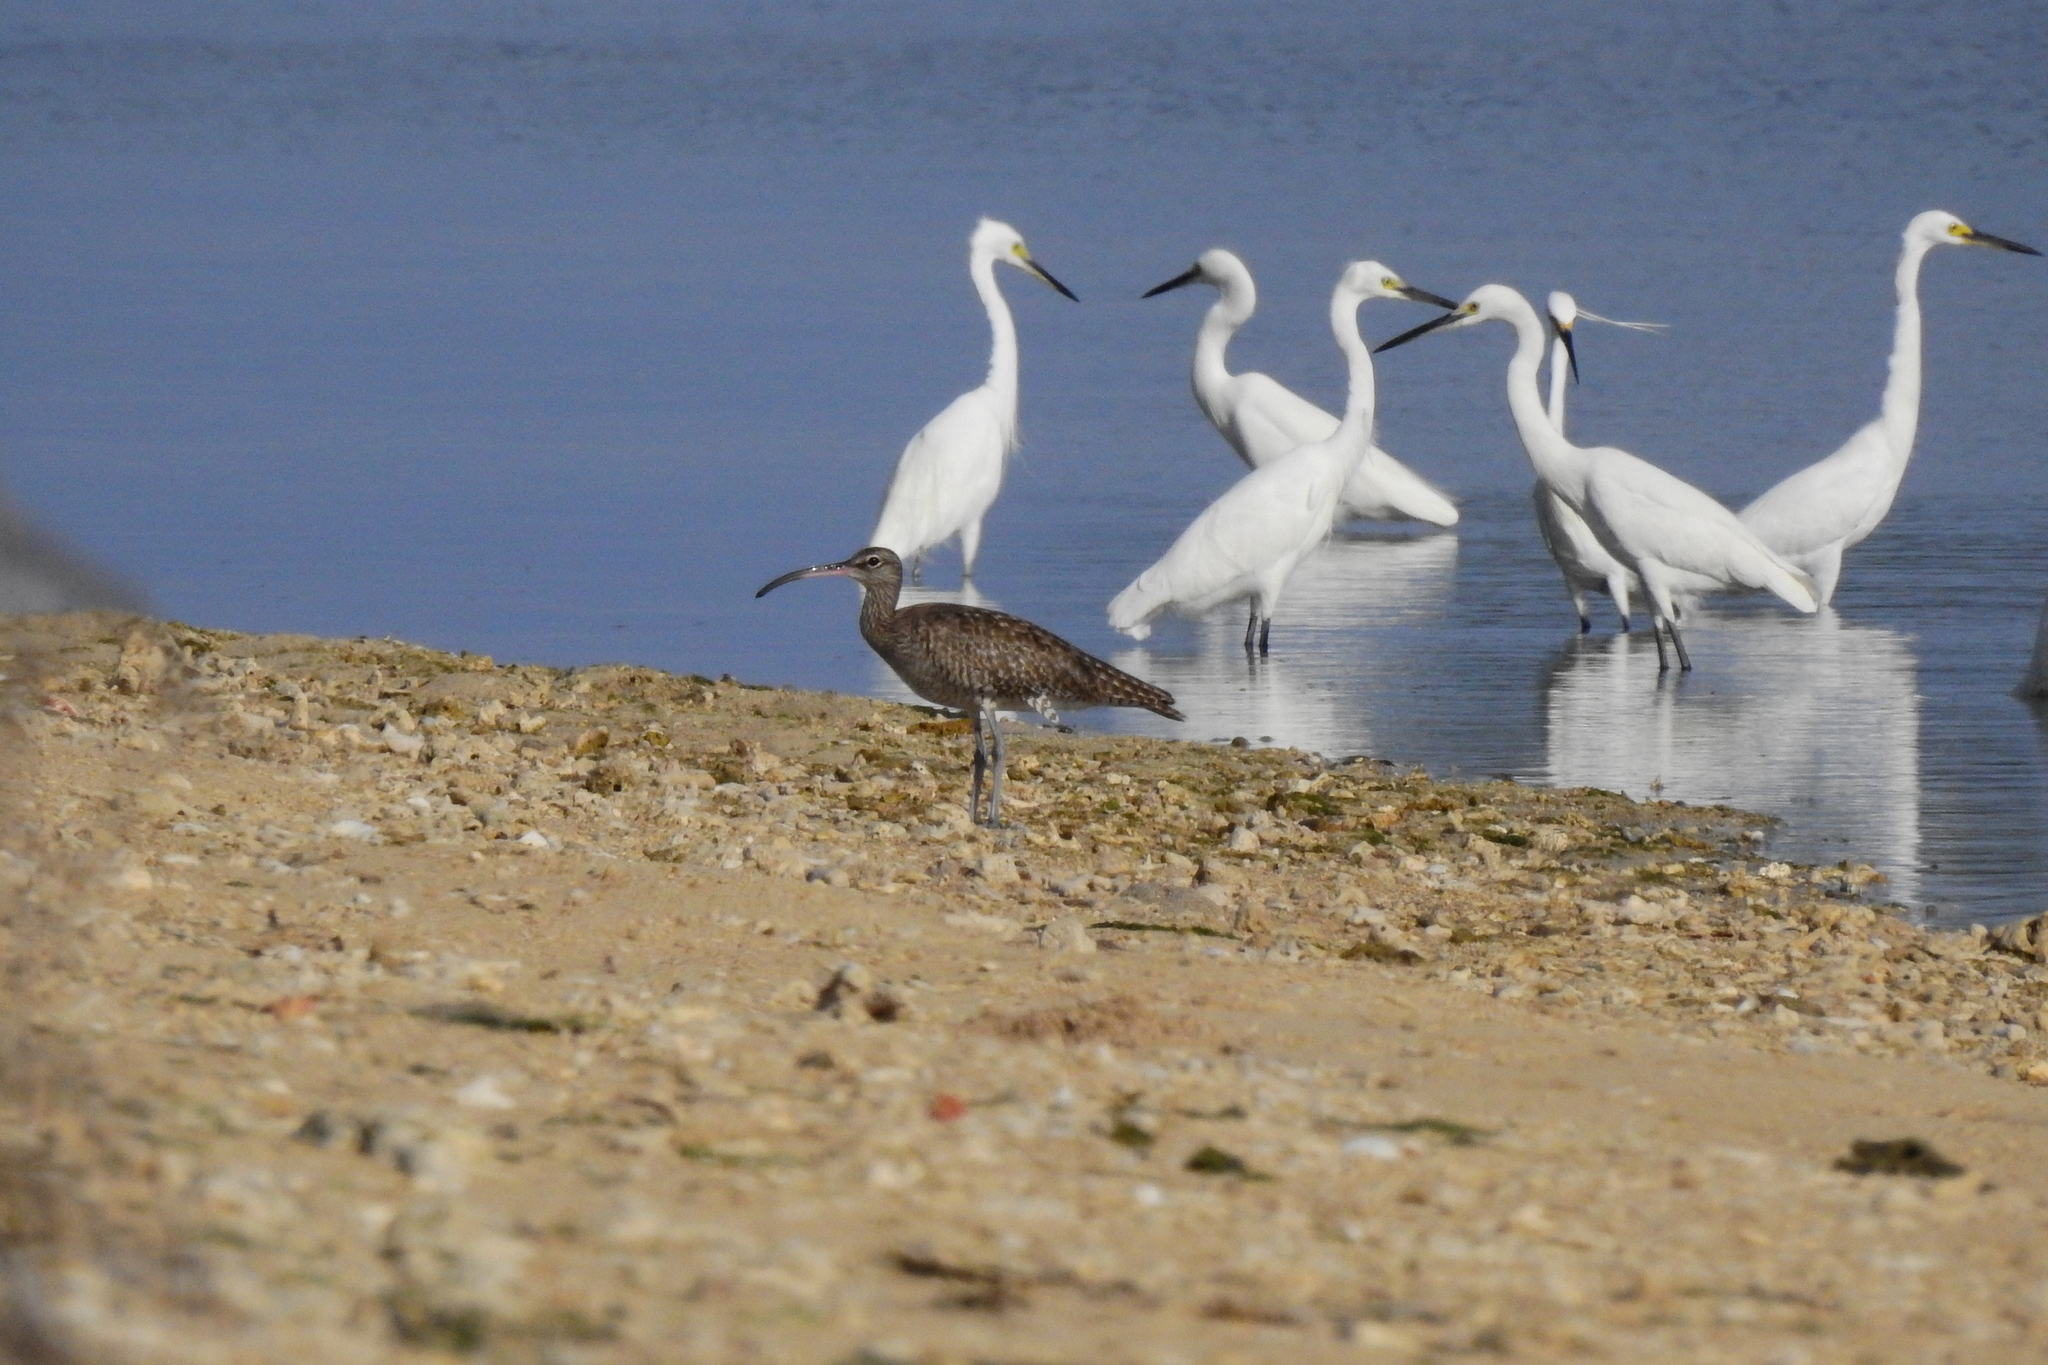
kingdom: Animalia
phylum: Chordata
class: Aves
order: Charadriiformes
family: Scolopacidae
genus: Numenius
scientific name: Numenius phaeopus
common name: Whimbrel
